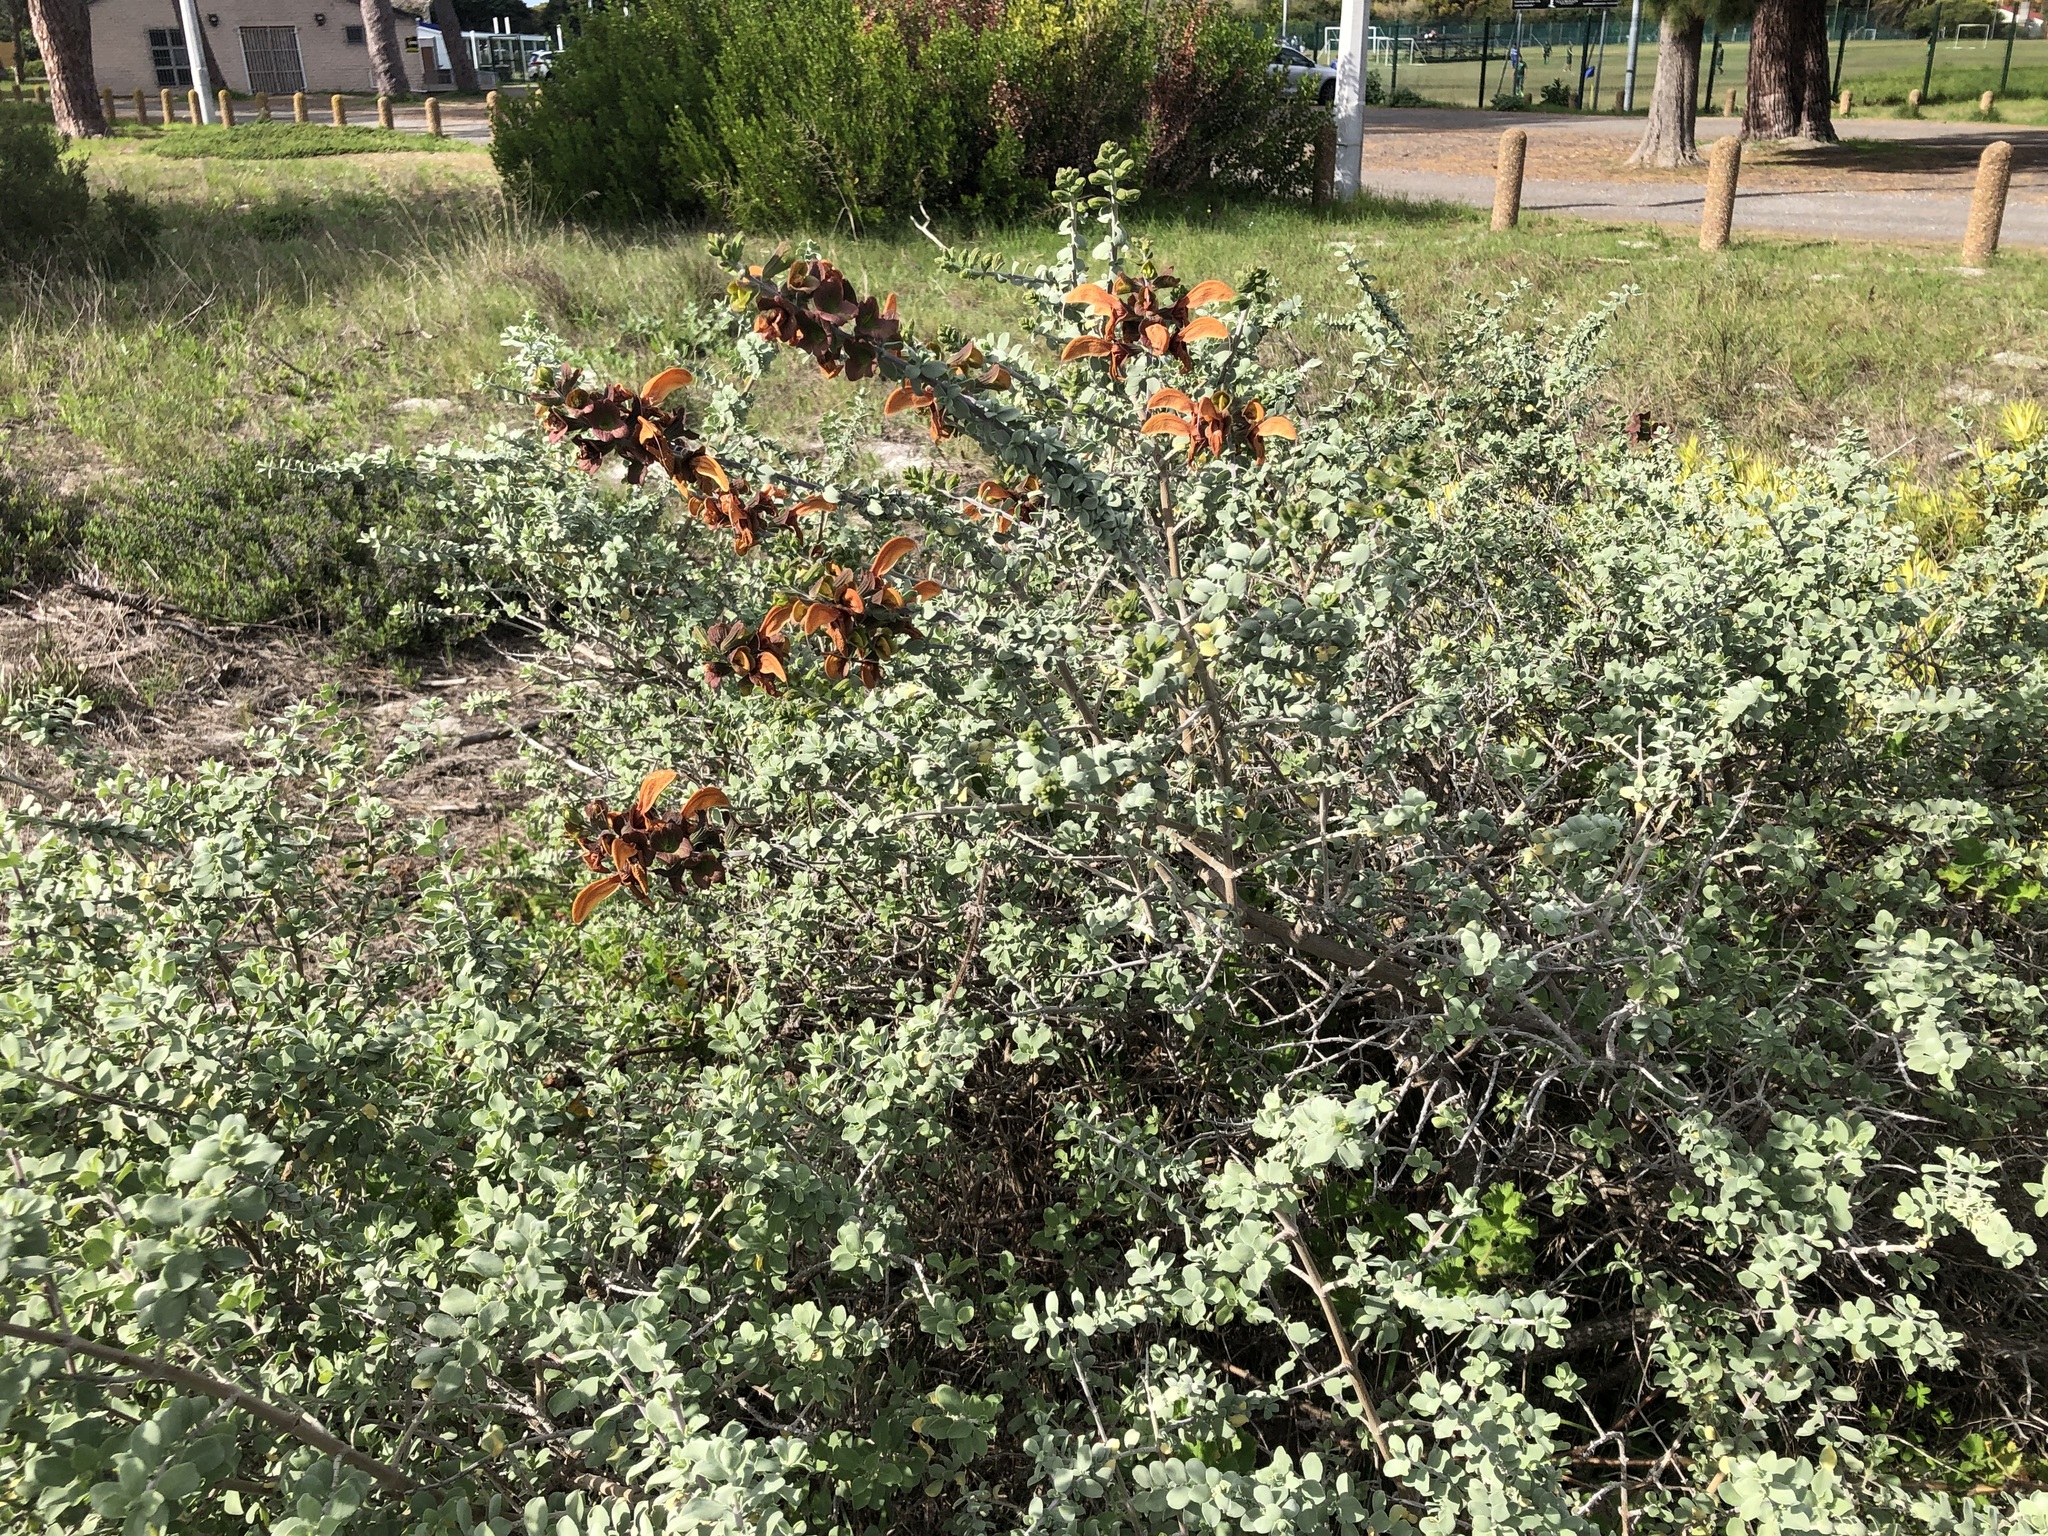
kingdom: Plantae
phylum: Tracheophyta
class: Magnoliopsida
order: Lamiales
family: Lamiaceae
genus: Salvia
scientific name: Salvia aurea
